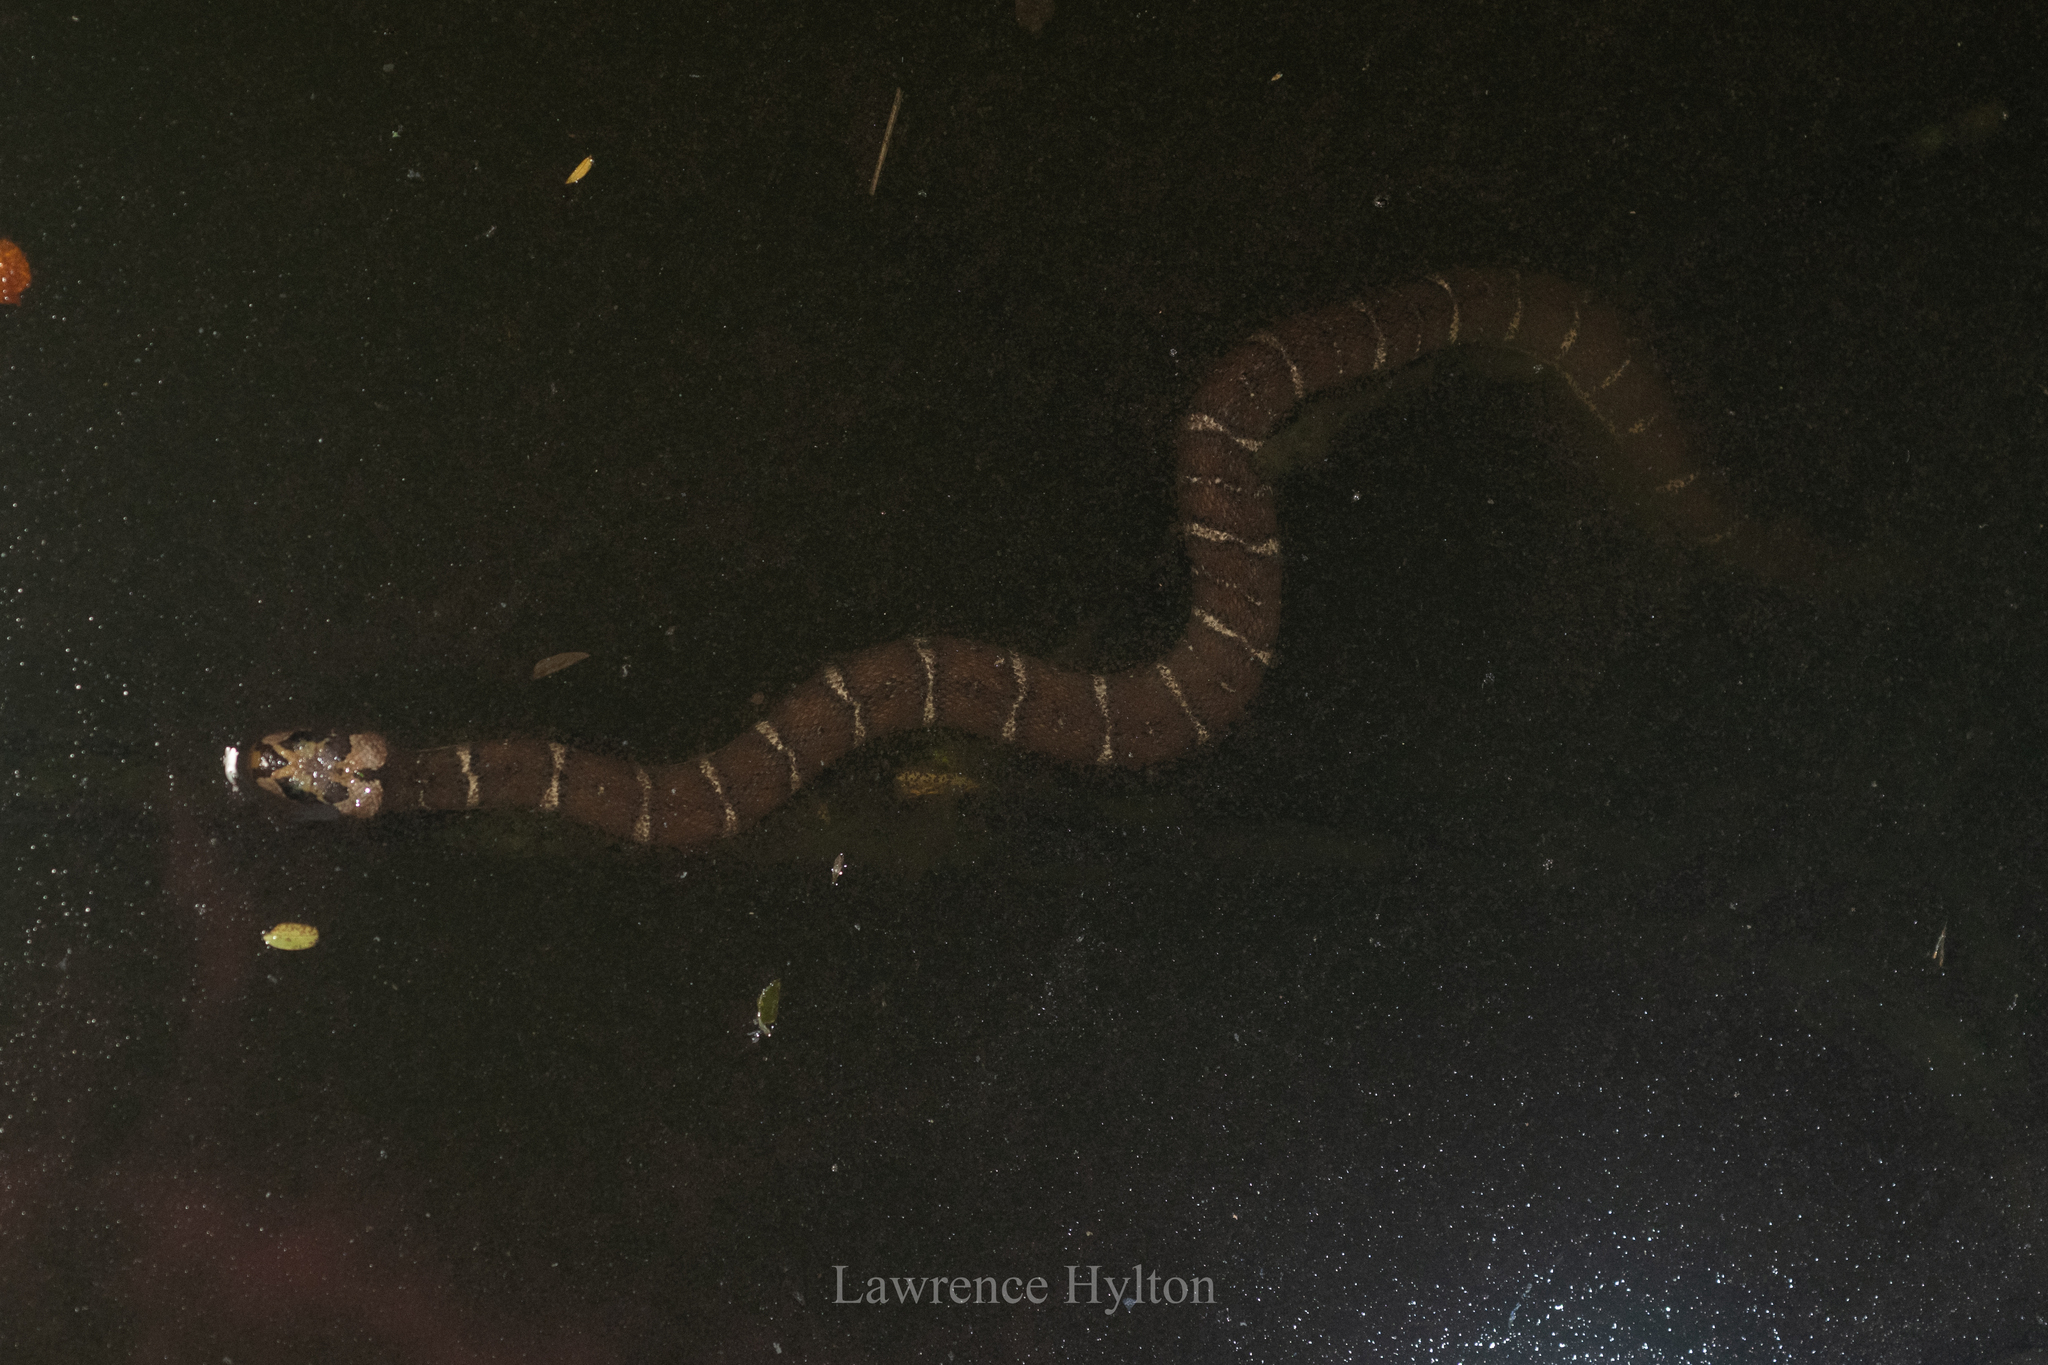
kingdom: Animalia
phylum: Chordata
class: Squamata
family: Homalopsidae
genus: Homalopsis
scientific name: Homalopsis mereljcoxi
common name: Jack’s water snake
